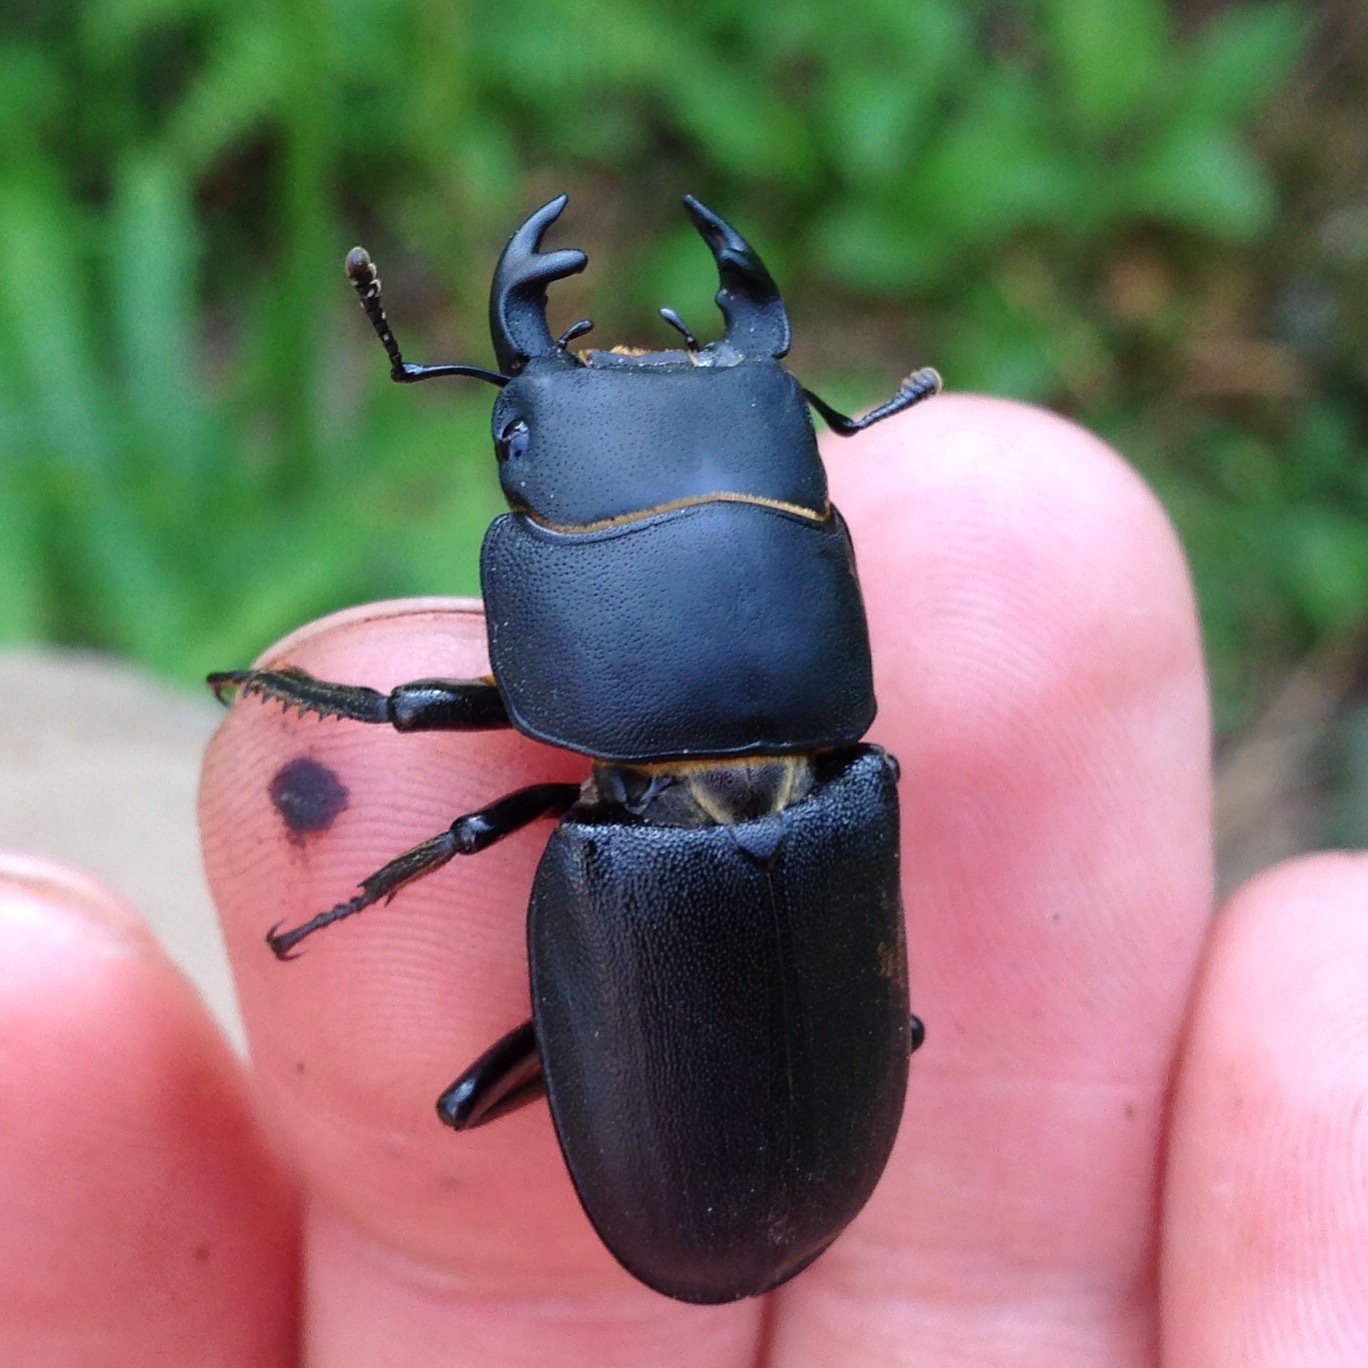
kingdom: Animalia
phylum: Arthropoda
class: Insecta
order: Coleoptera
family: Lucanidae
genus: Dorcus
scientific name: Dorcus parallelipipedus
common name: Lesser stag beetle
